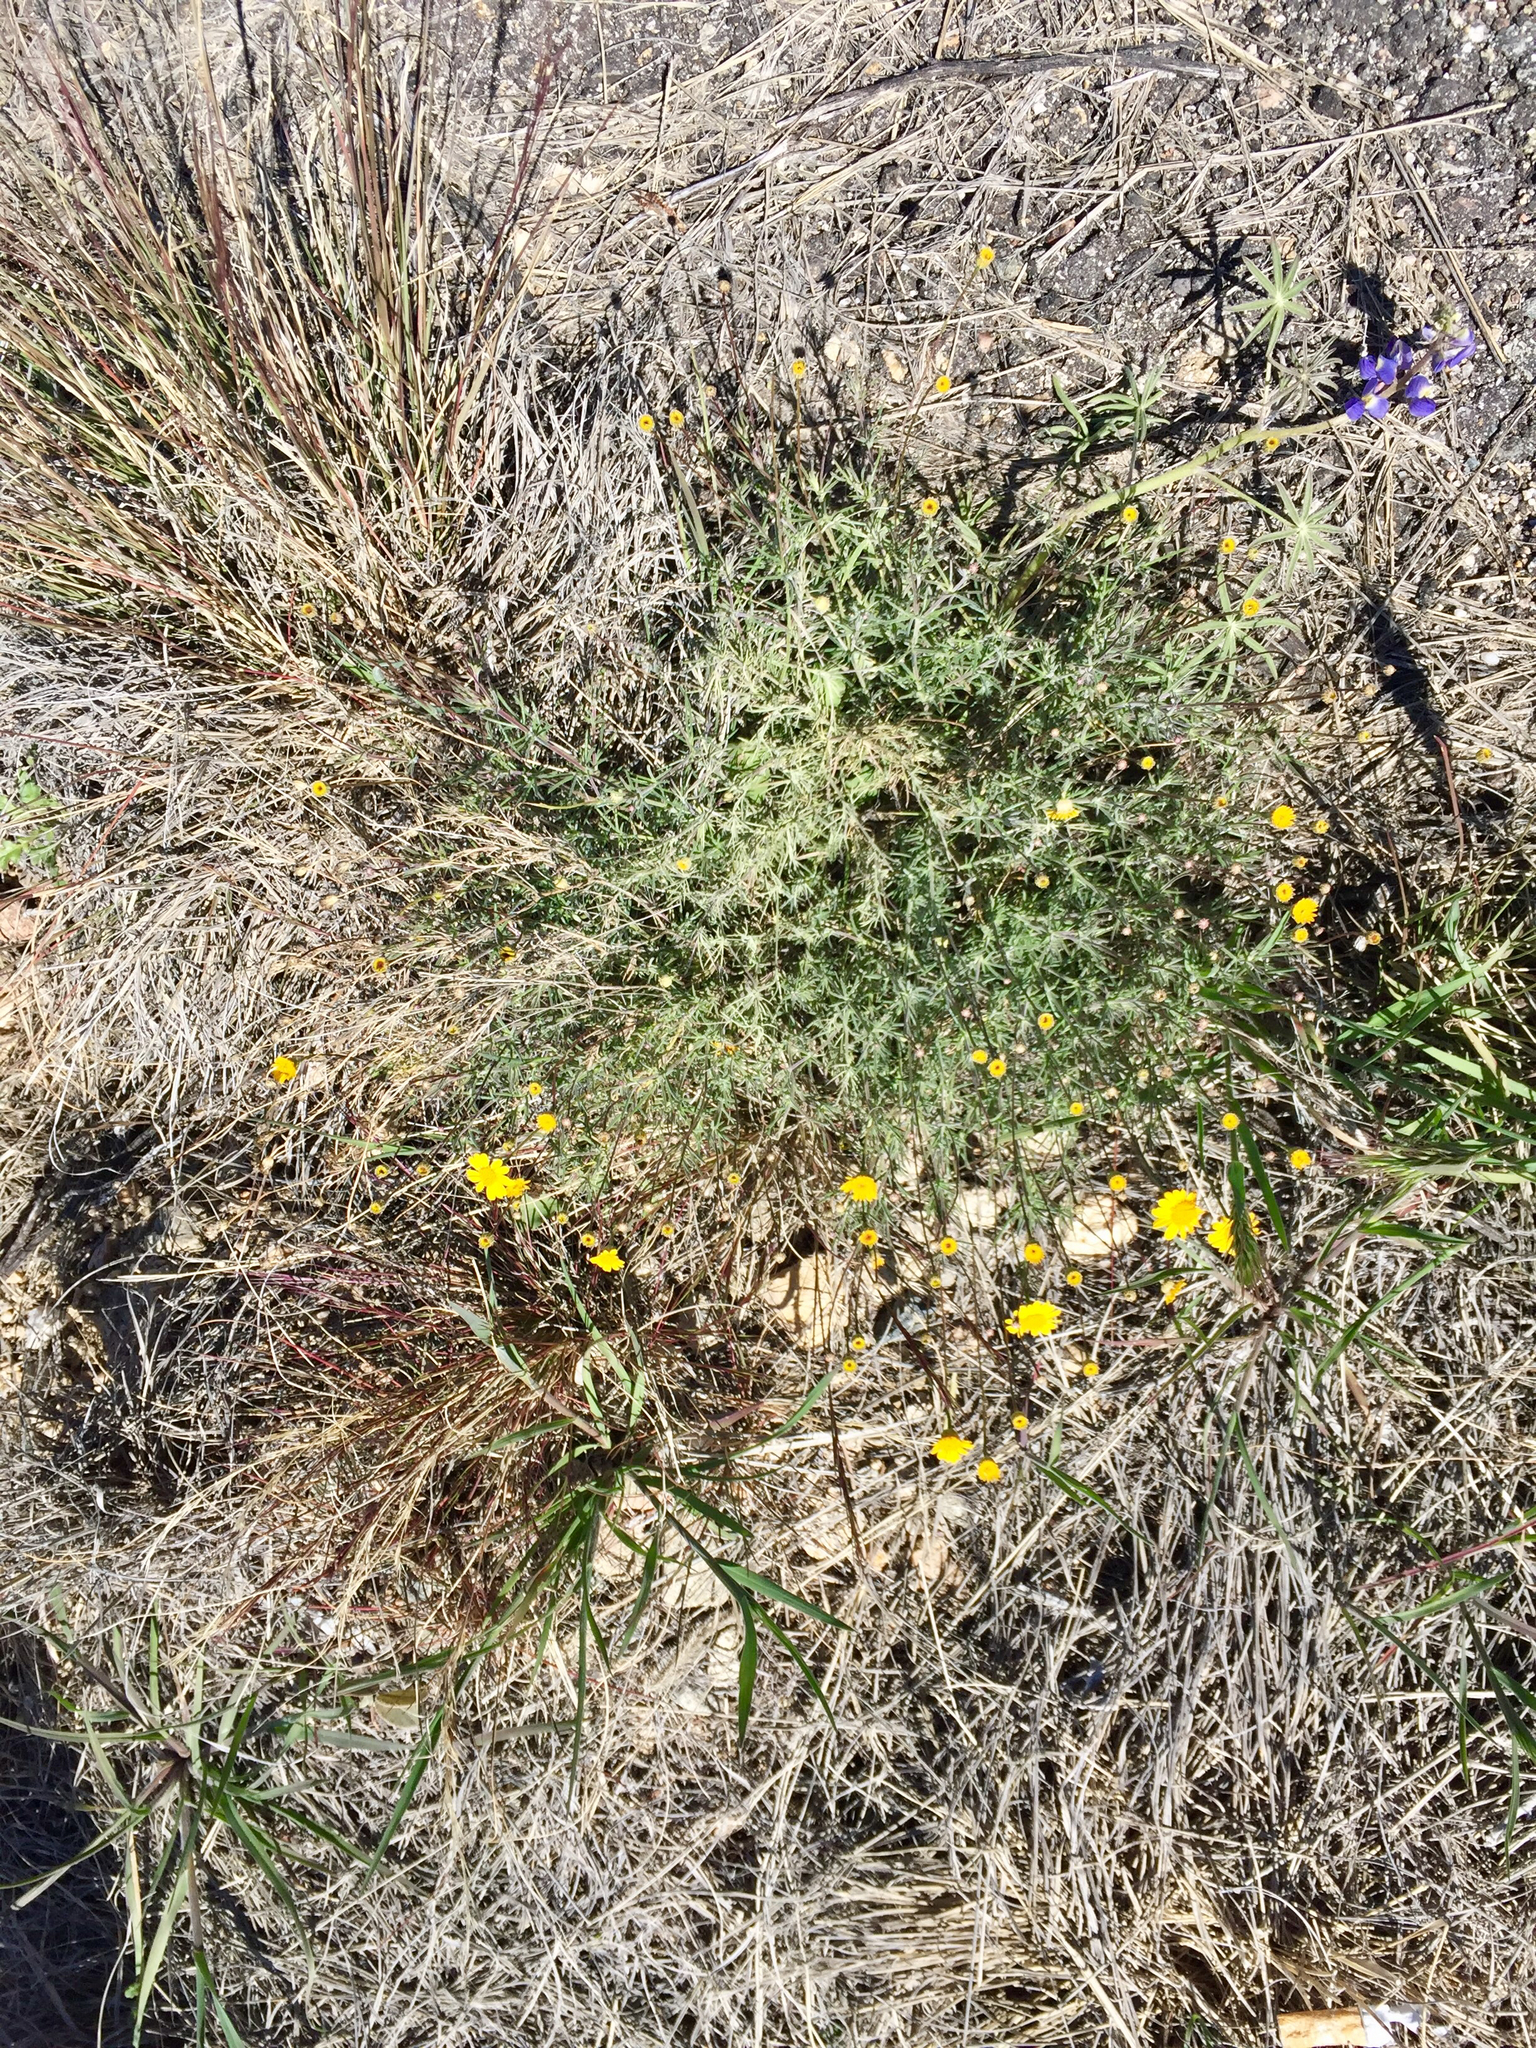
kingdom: Plantae
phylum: Tracheophyta
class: Magnoliopsida
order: Asterales
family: Asteraceae
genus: Thymophylla
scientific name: Thymophylla pentachaeta
